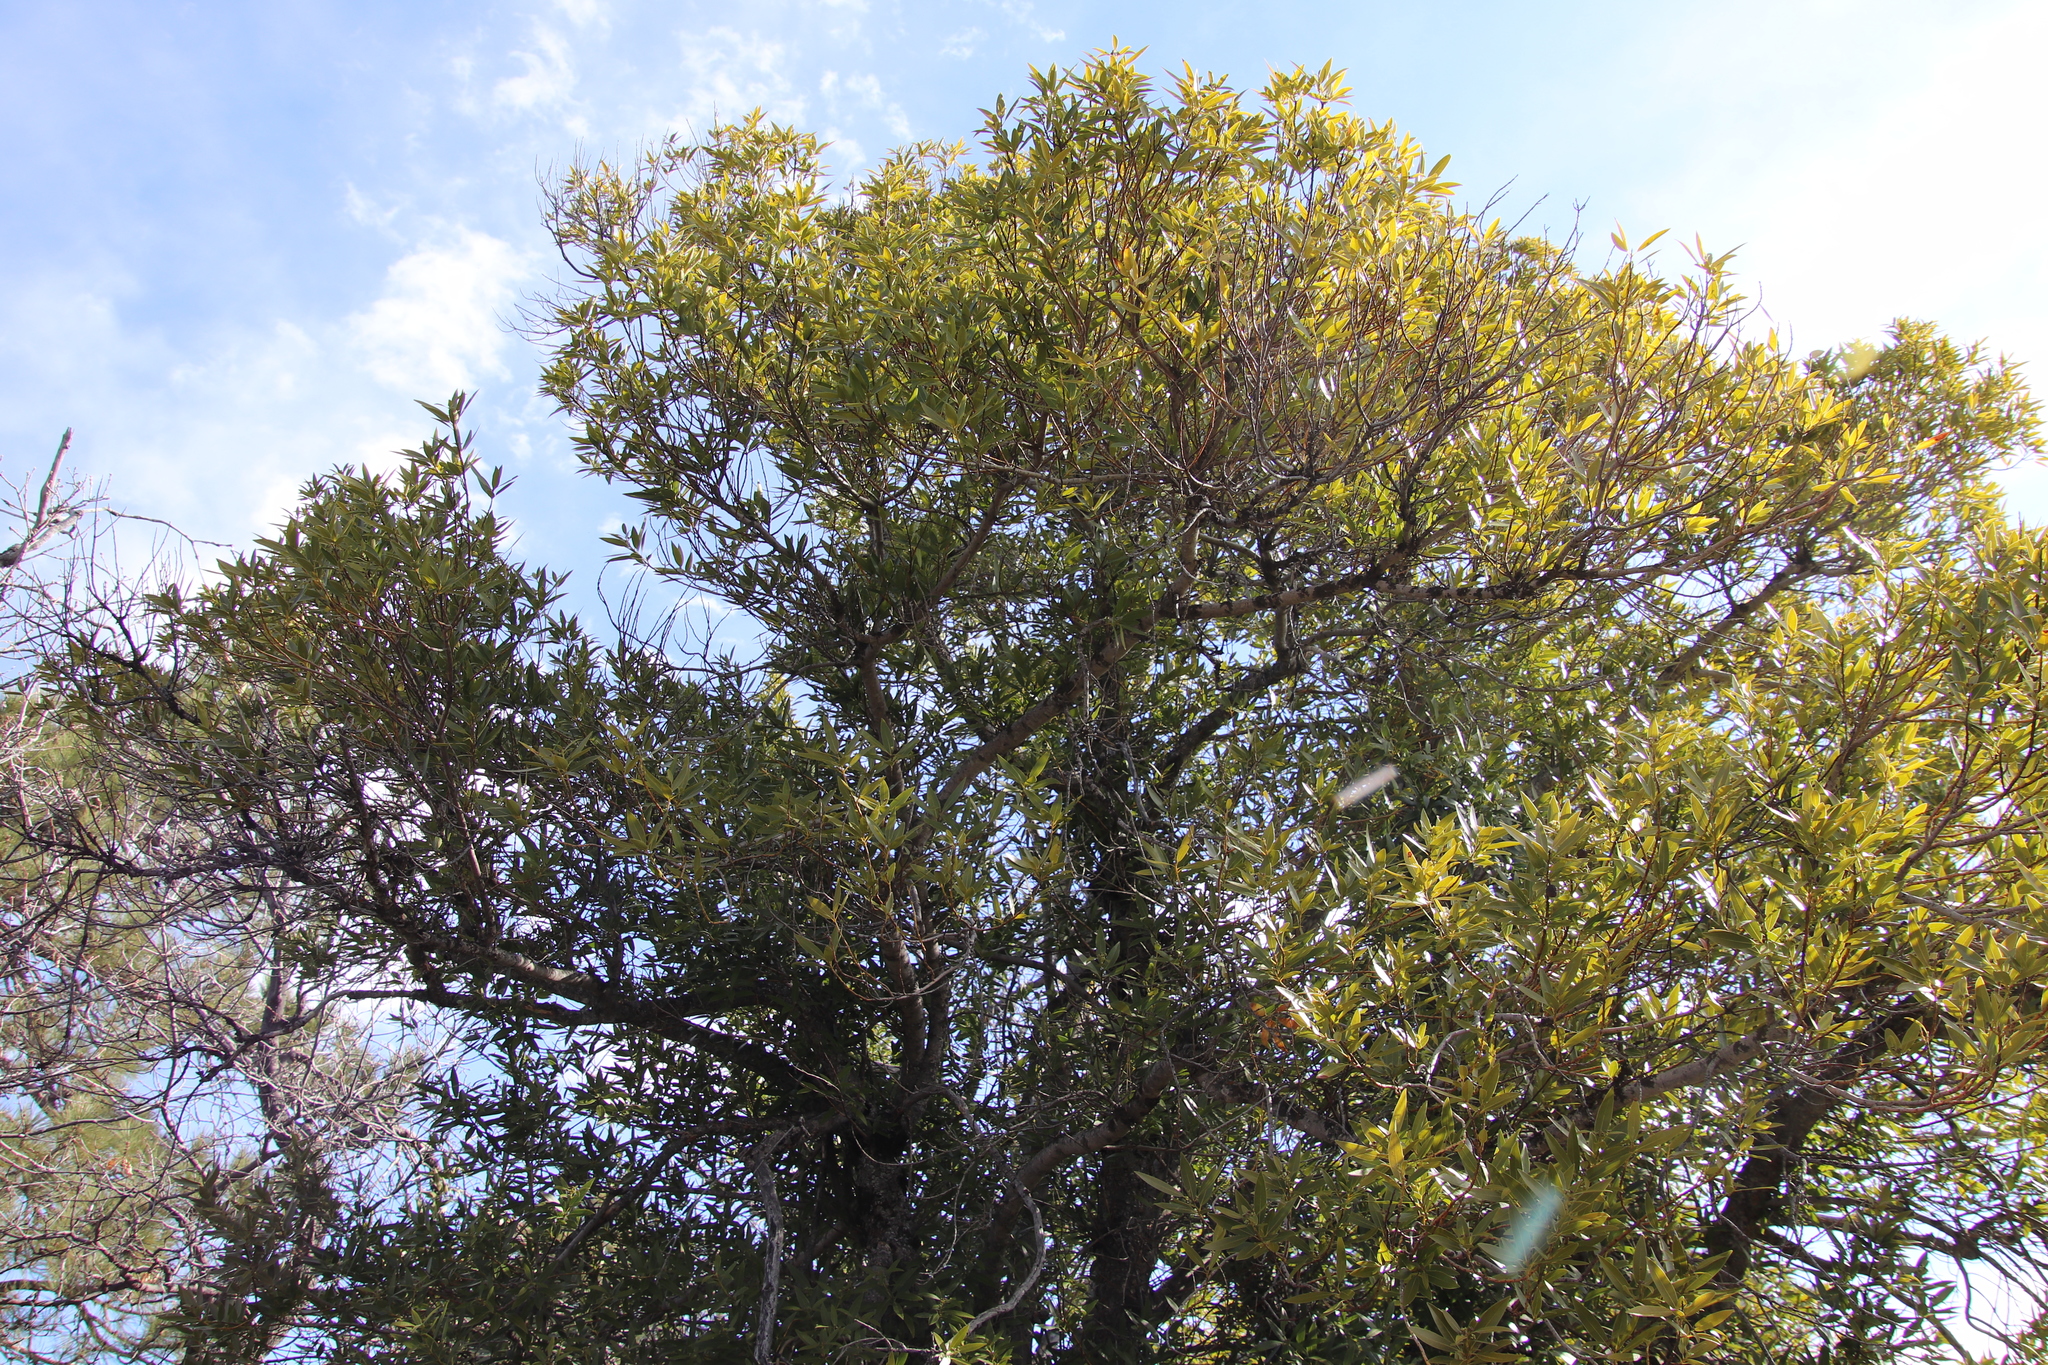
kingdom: Plantae
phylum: Tracheophyta
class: Magnoliopsida
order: Laurales
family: Lauraceae
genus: Umbellularia
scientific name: Umbellularia californica
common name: California bay
